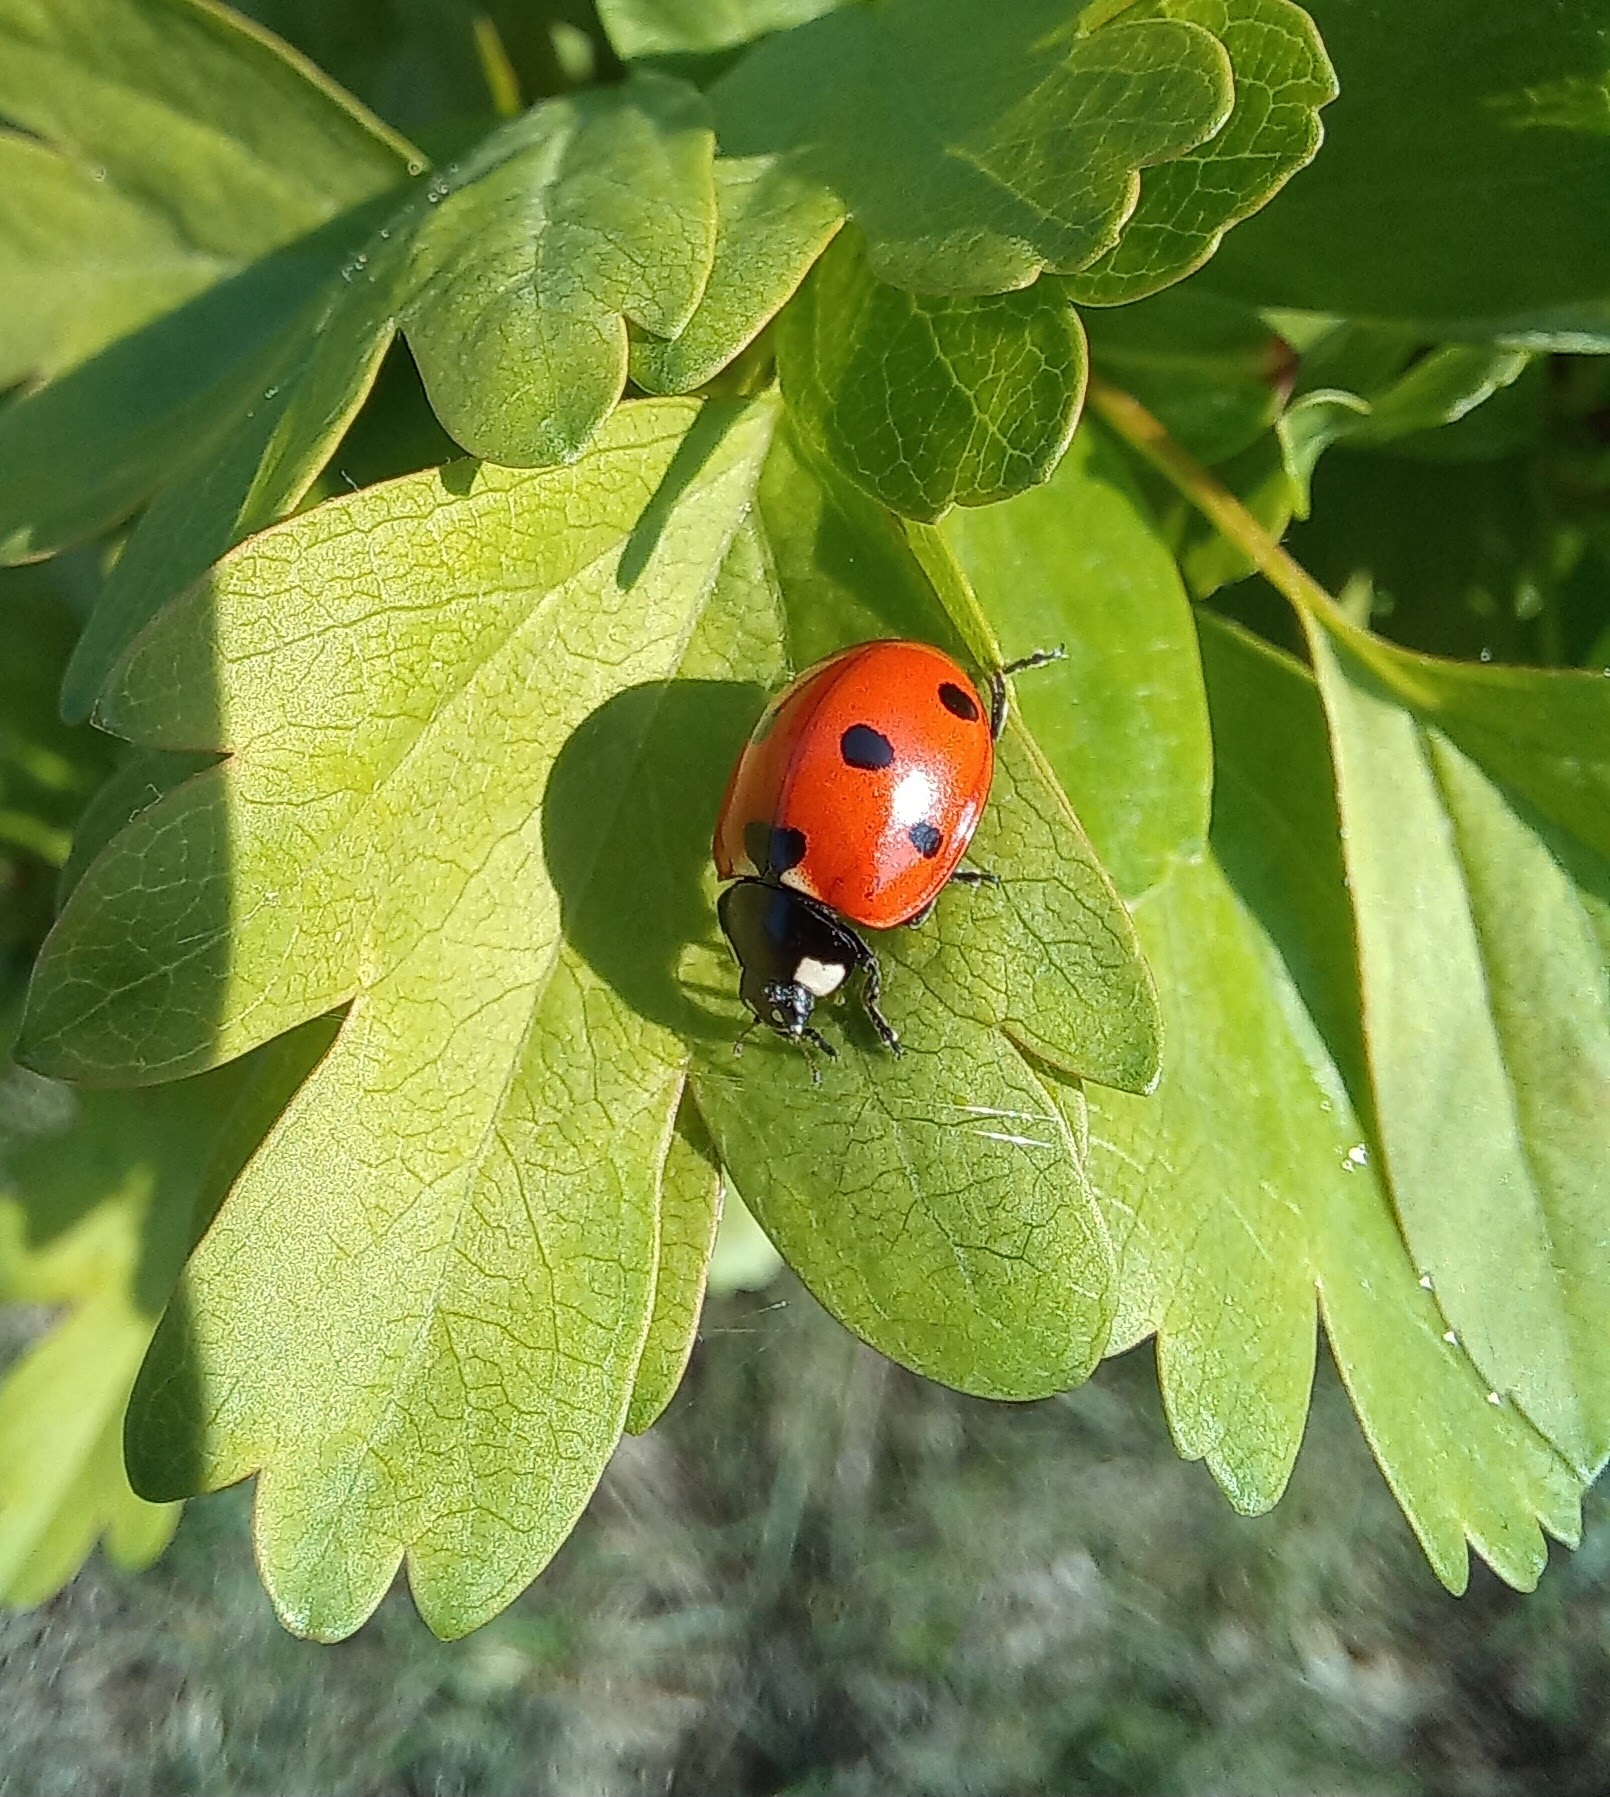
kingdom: Animalia
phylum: Arthropoda
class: Insecta
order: Coleoptera
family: Coccinellidae
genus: Coccinella
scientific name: Coccinella septempunctata
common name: Sevenspotted lady beetle
